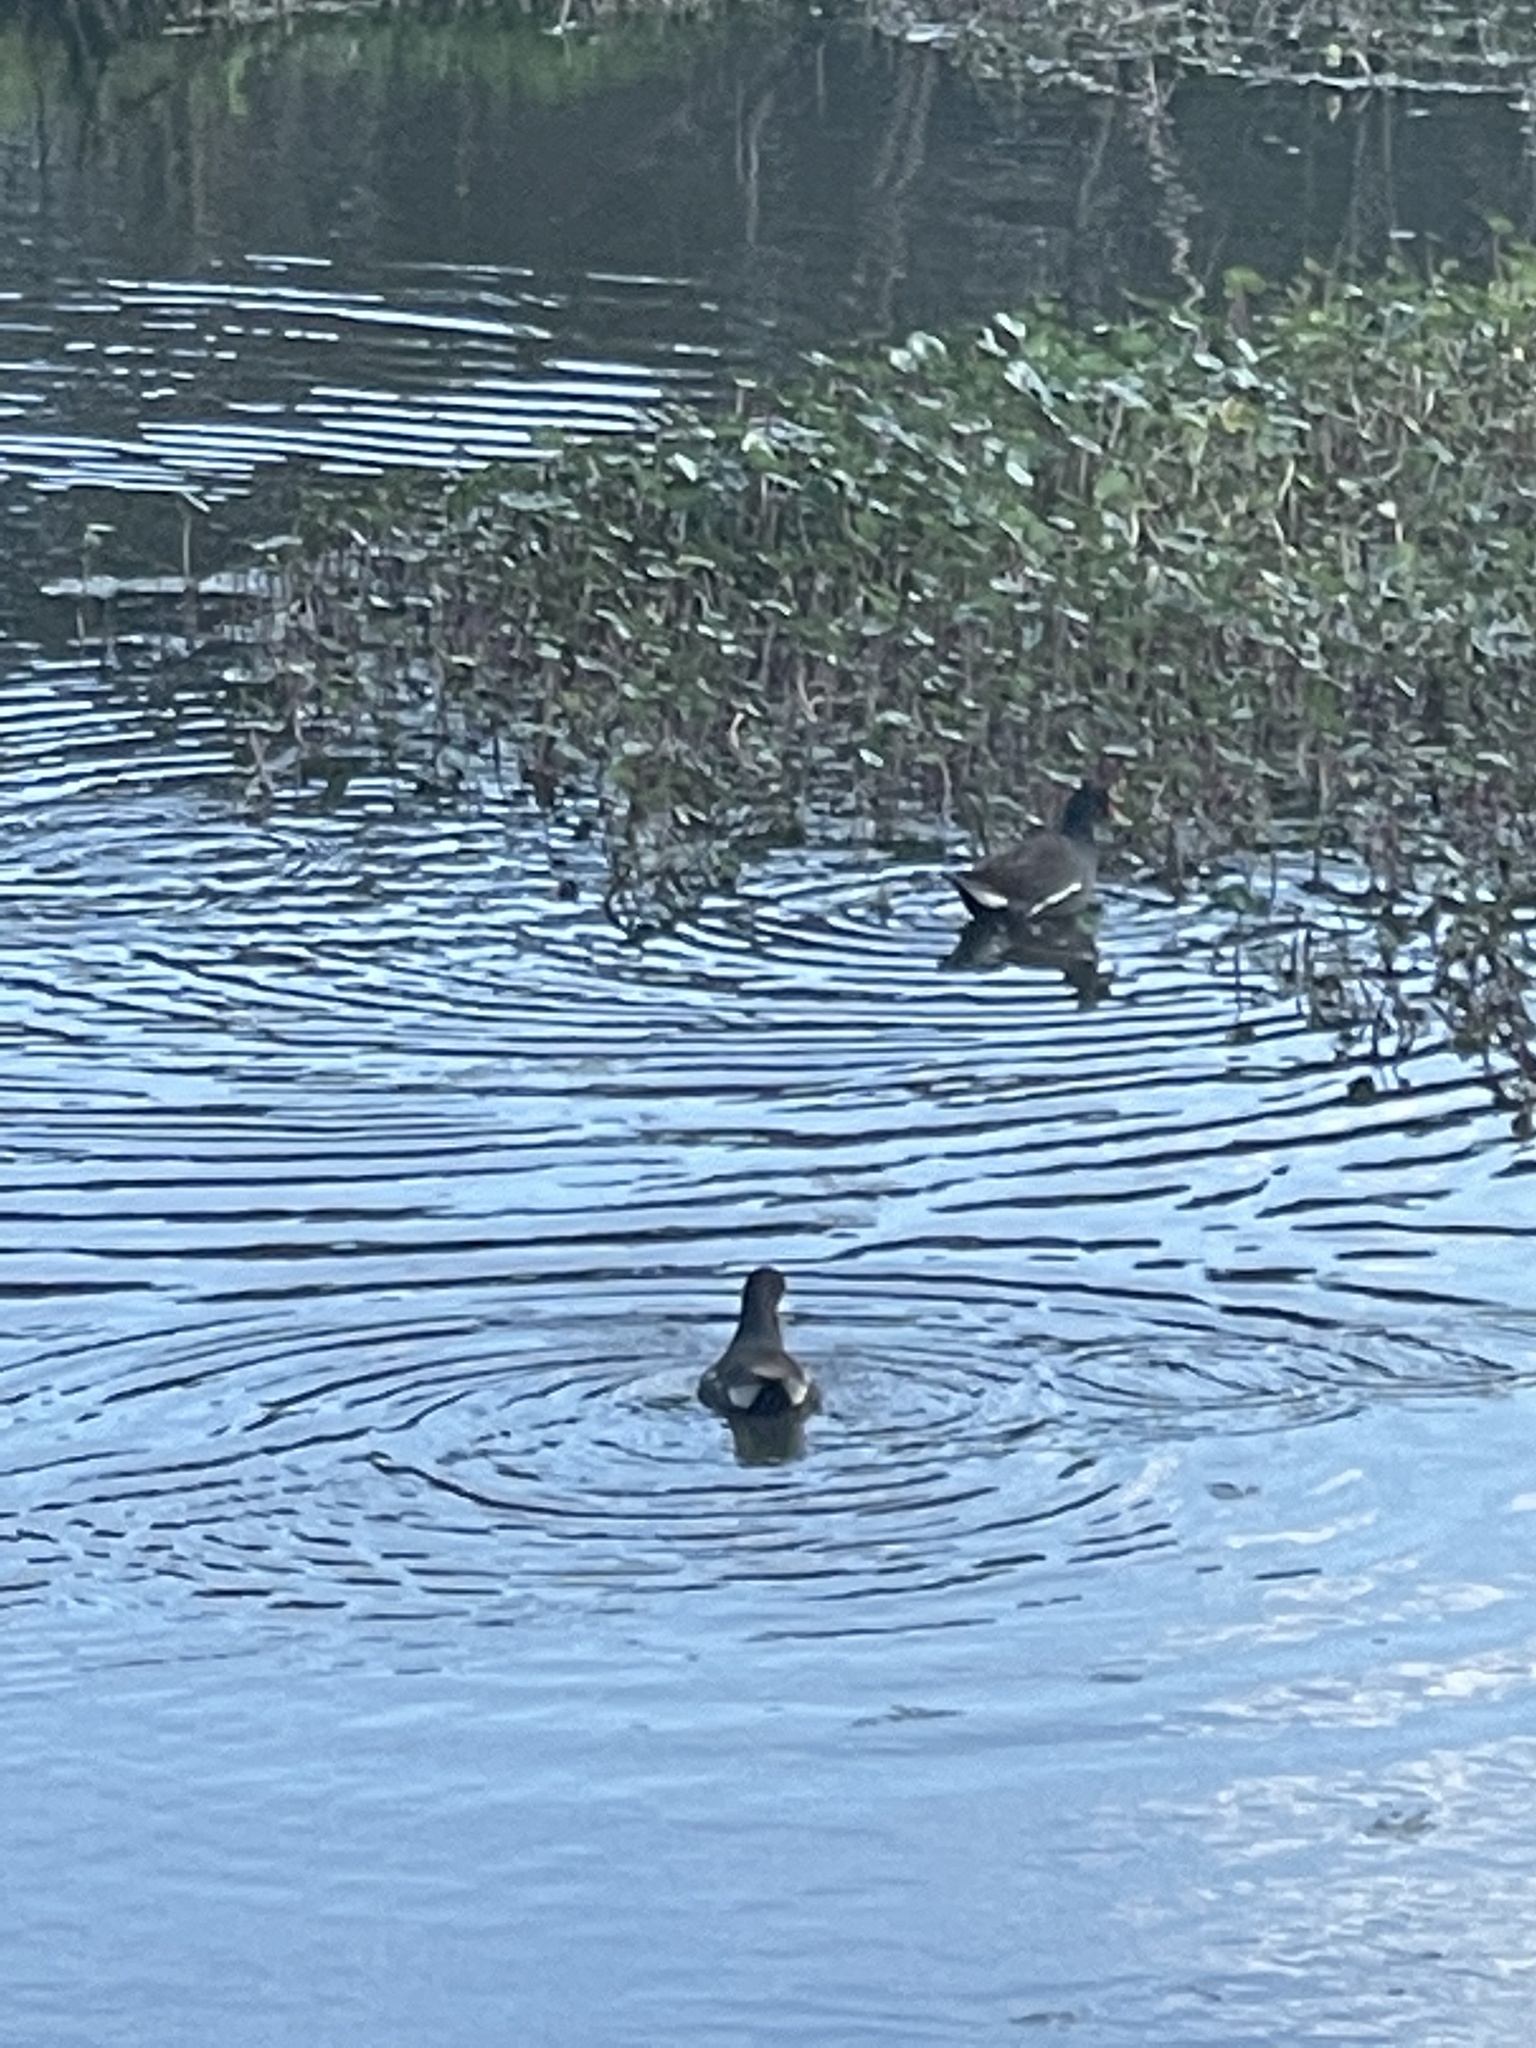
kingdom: Animalia
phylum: Chordata
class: Aves
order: Gruiformes
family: Rallidae
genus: Gallinula
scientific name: Gallinula chloropus
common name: Common moorhen
